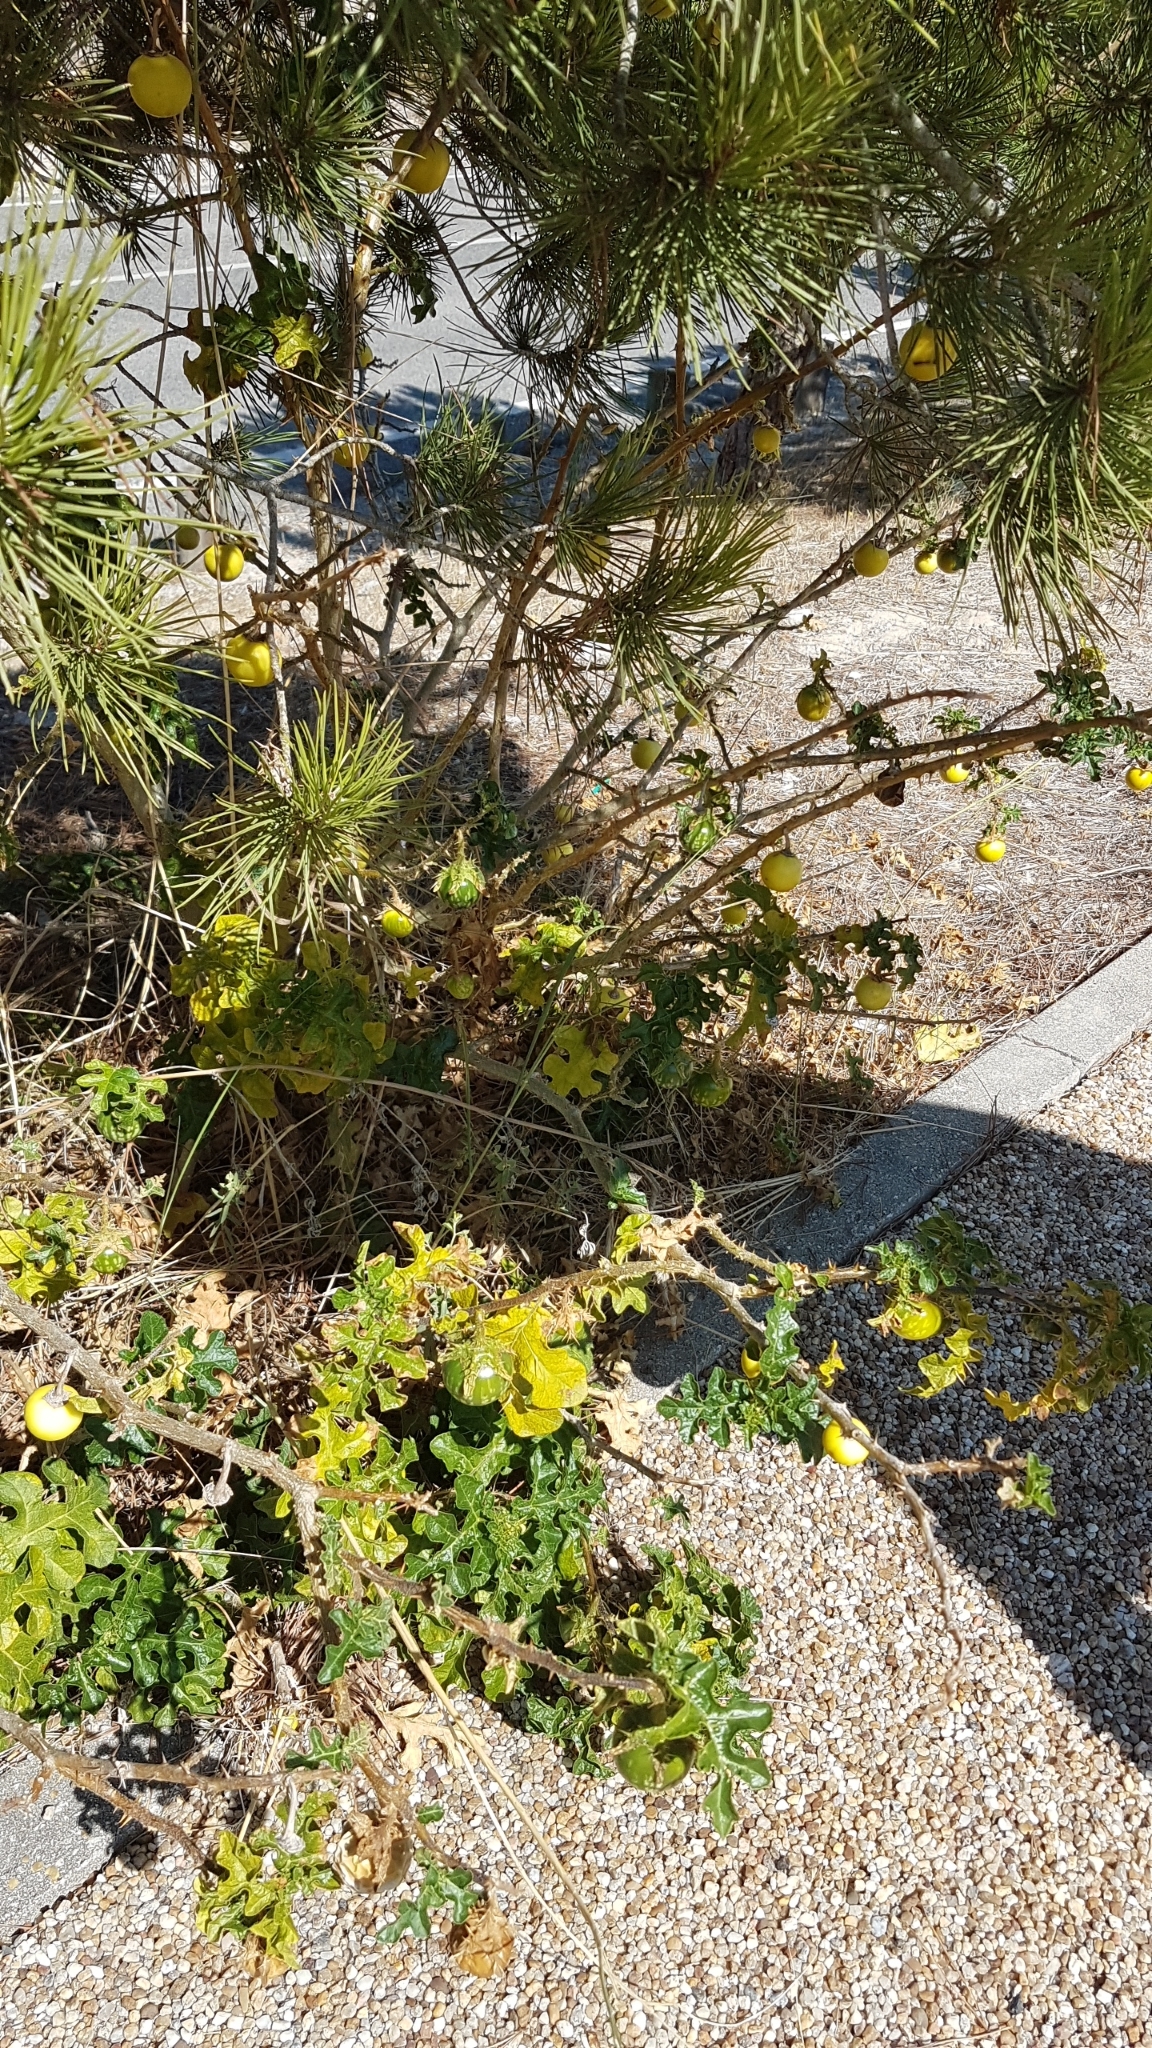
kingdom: Plantae
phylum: Tracheophyta
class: Magnoliopsida
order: Solanales
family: Solanaceae
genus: Solanum
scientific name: Solanum linnaeanum
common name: Nightshade
